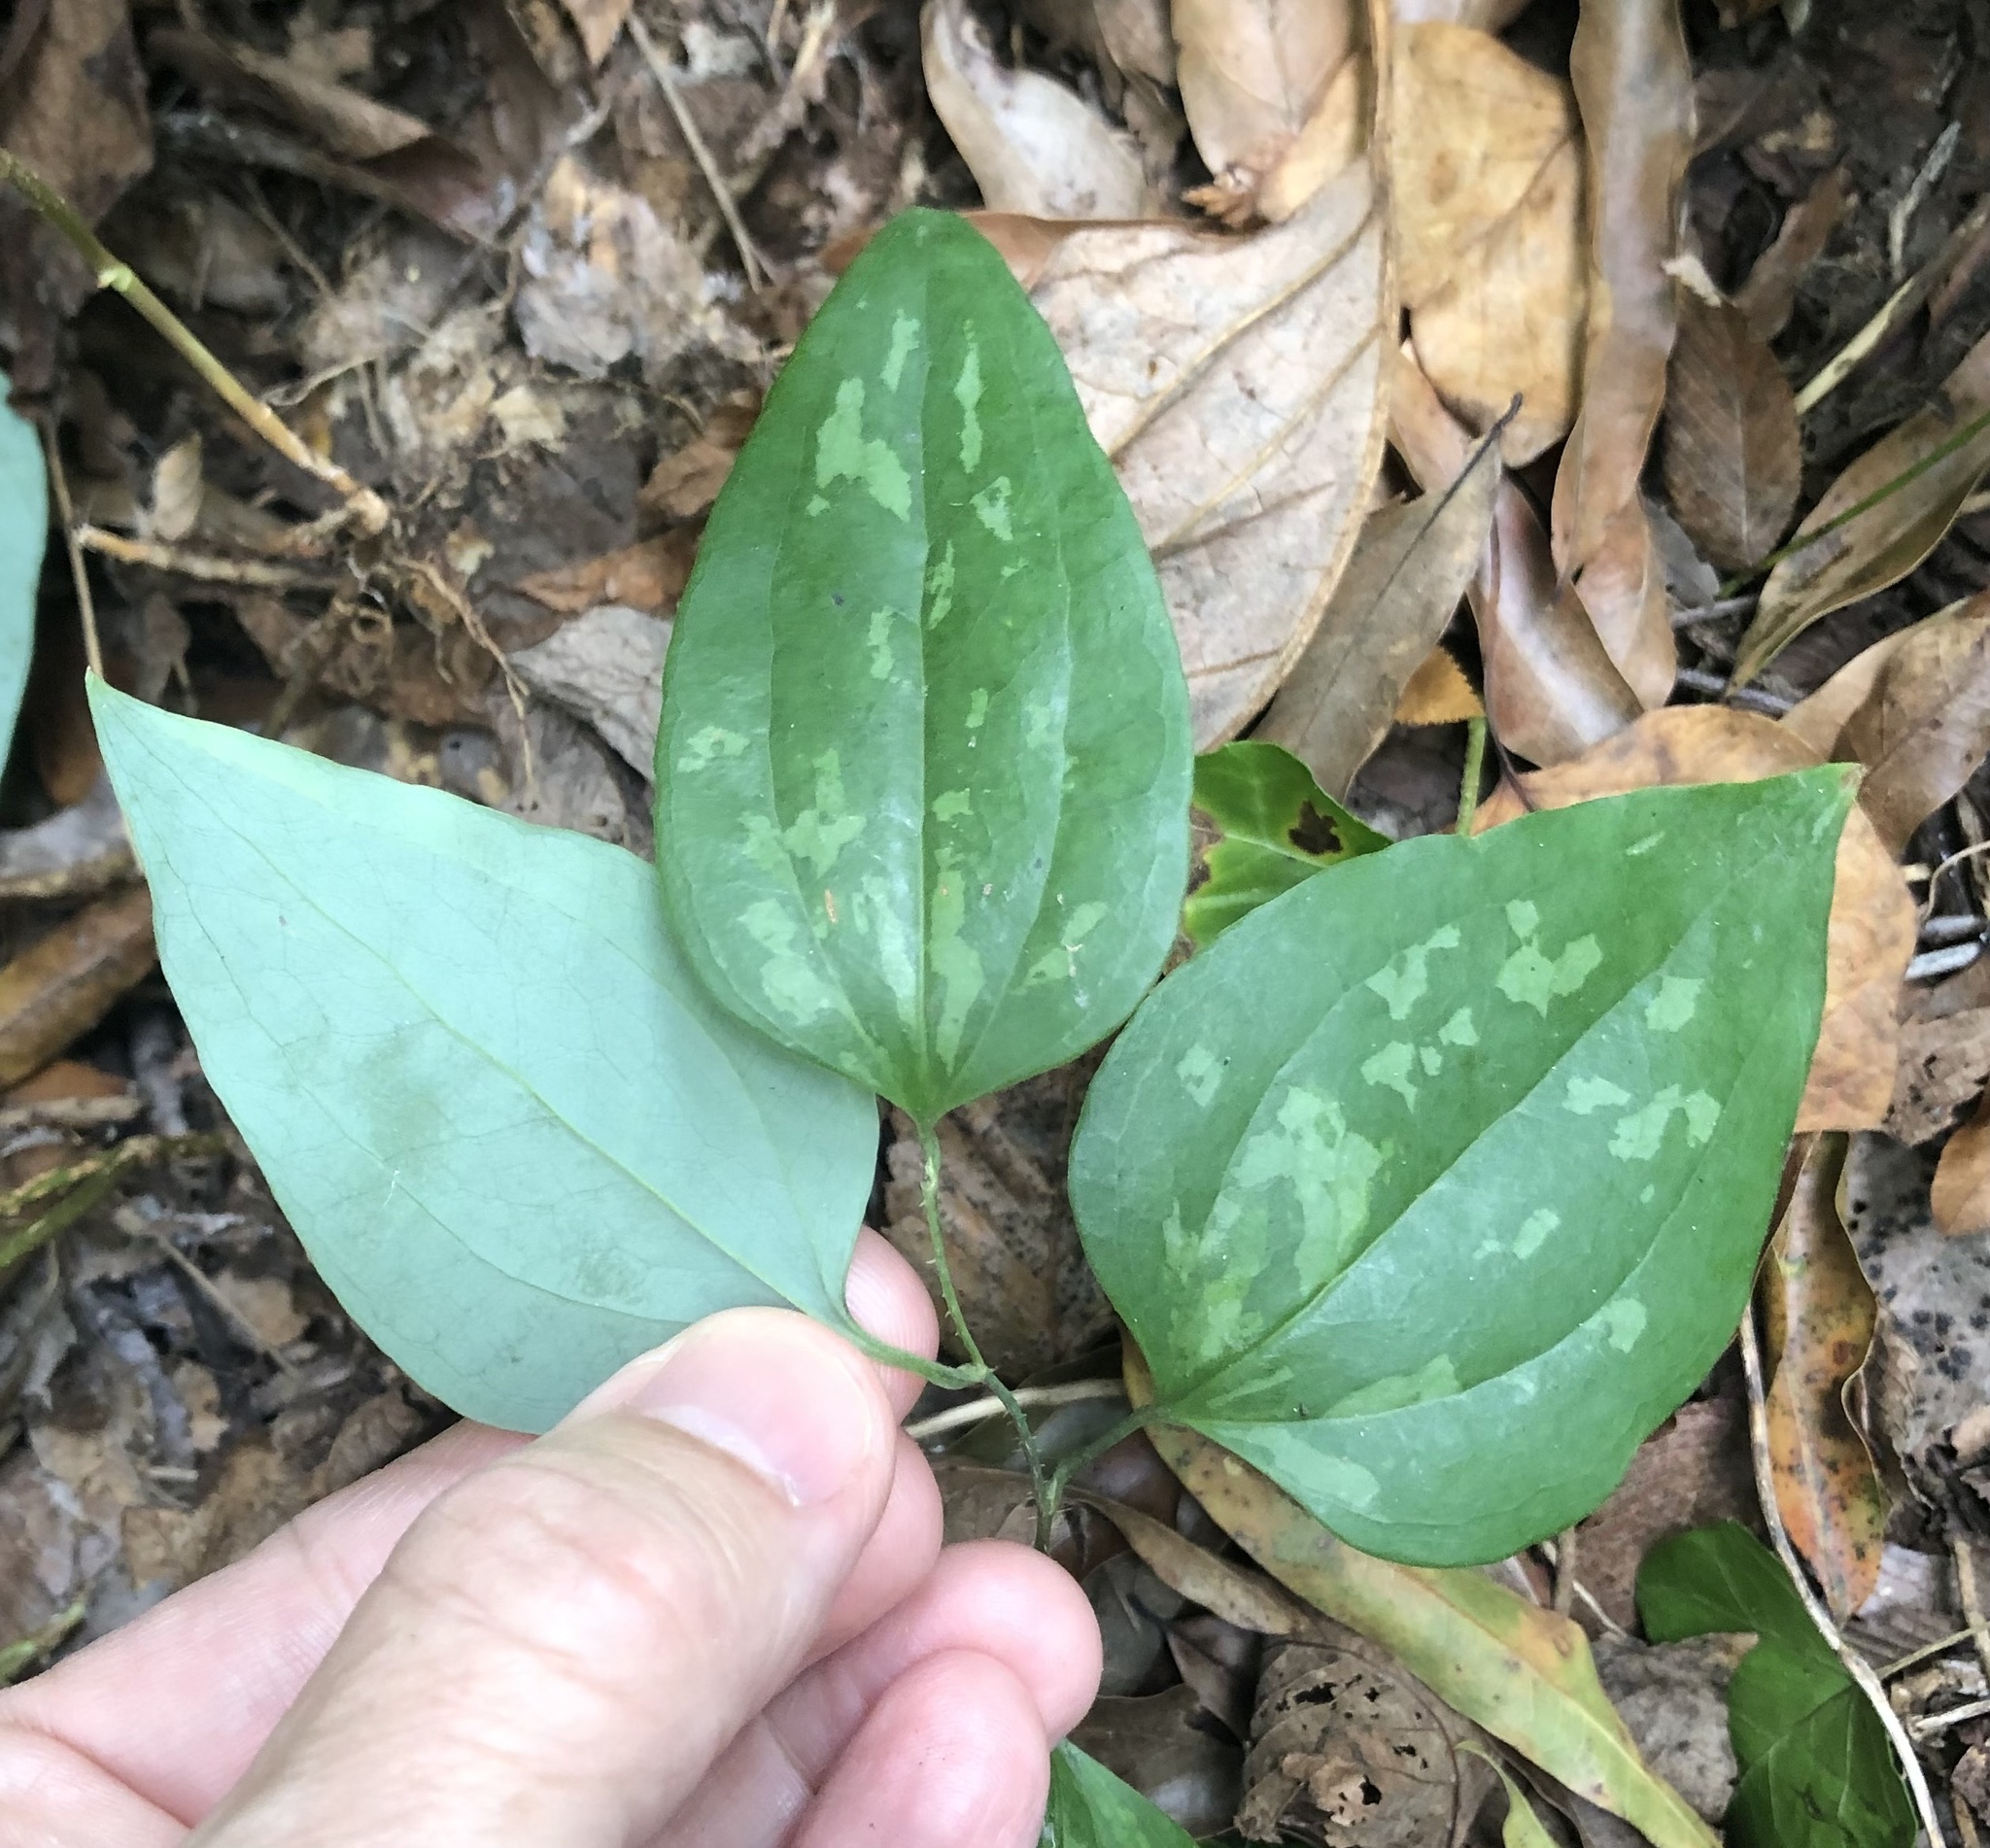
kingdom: Plantae
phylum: Tracheophyta
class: Liliopsida
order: Liliales
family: Smilacaceae
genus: Smilax
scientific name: Smilax glauca
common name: Cat greenbrier
